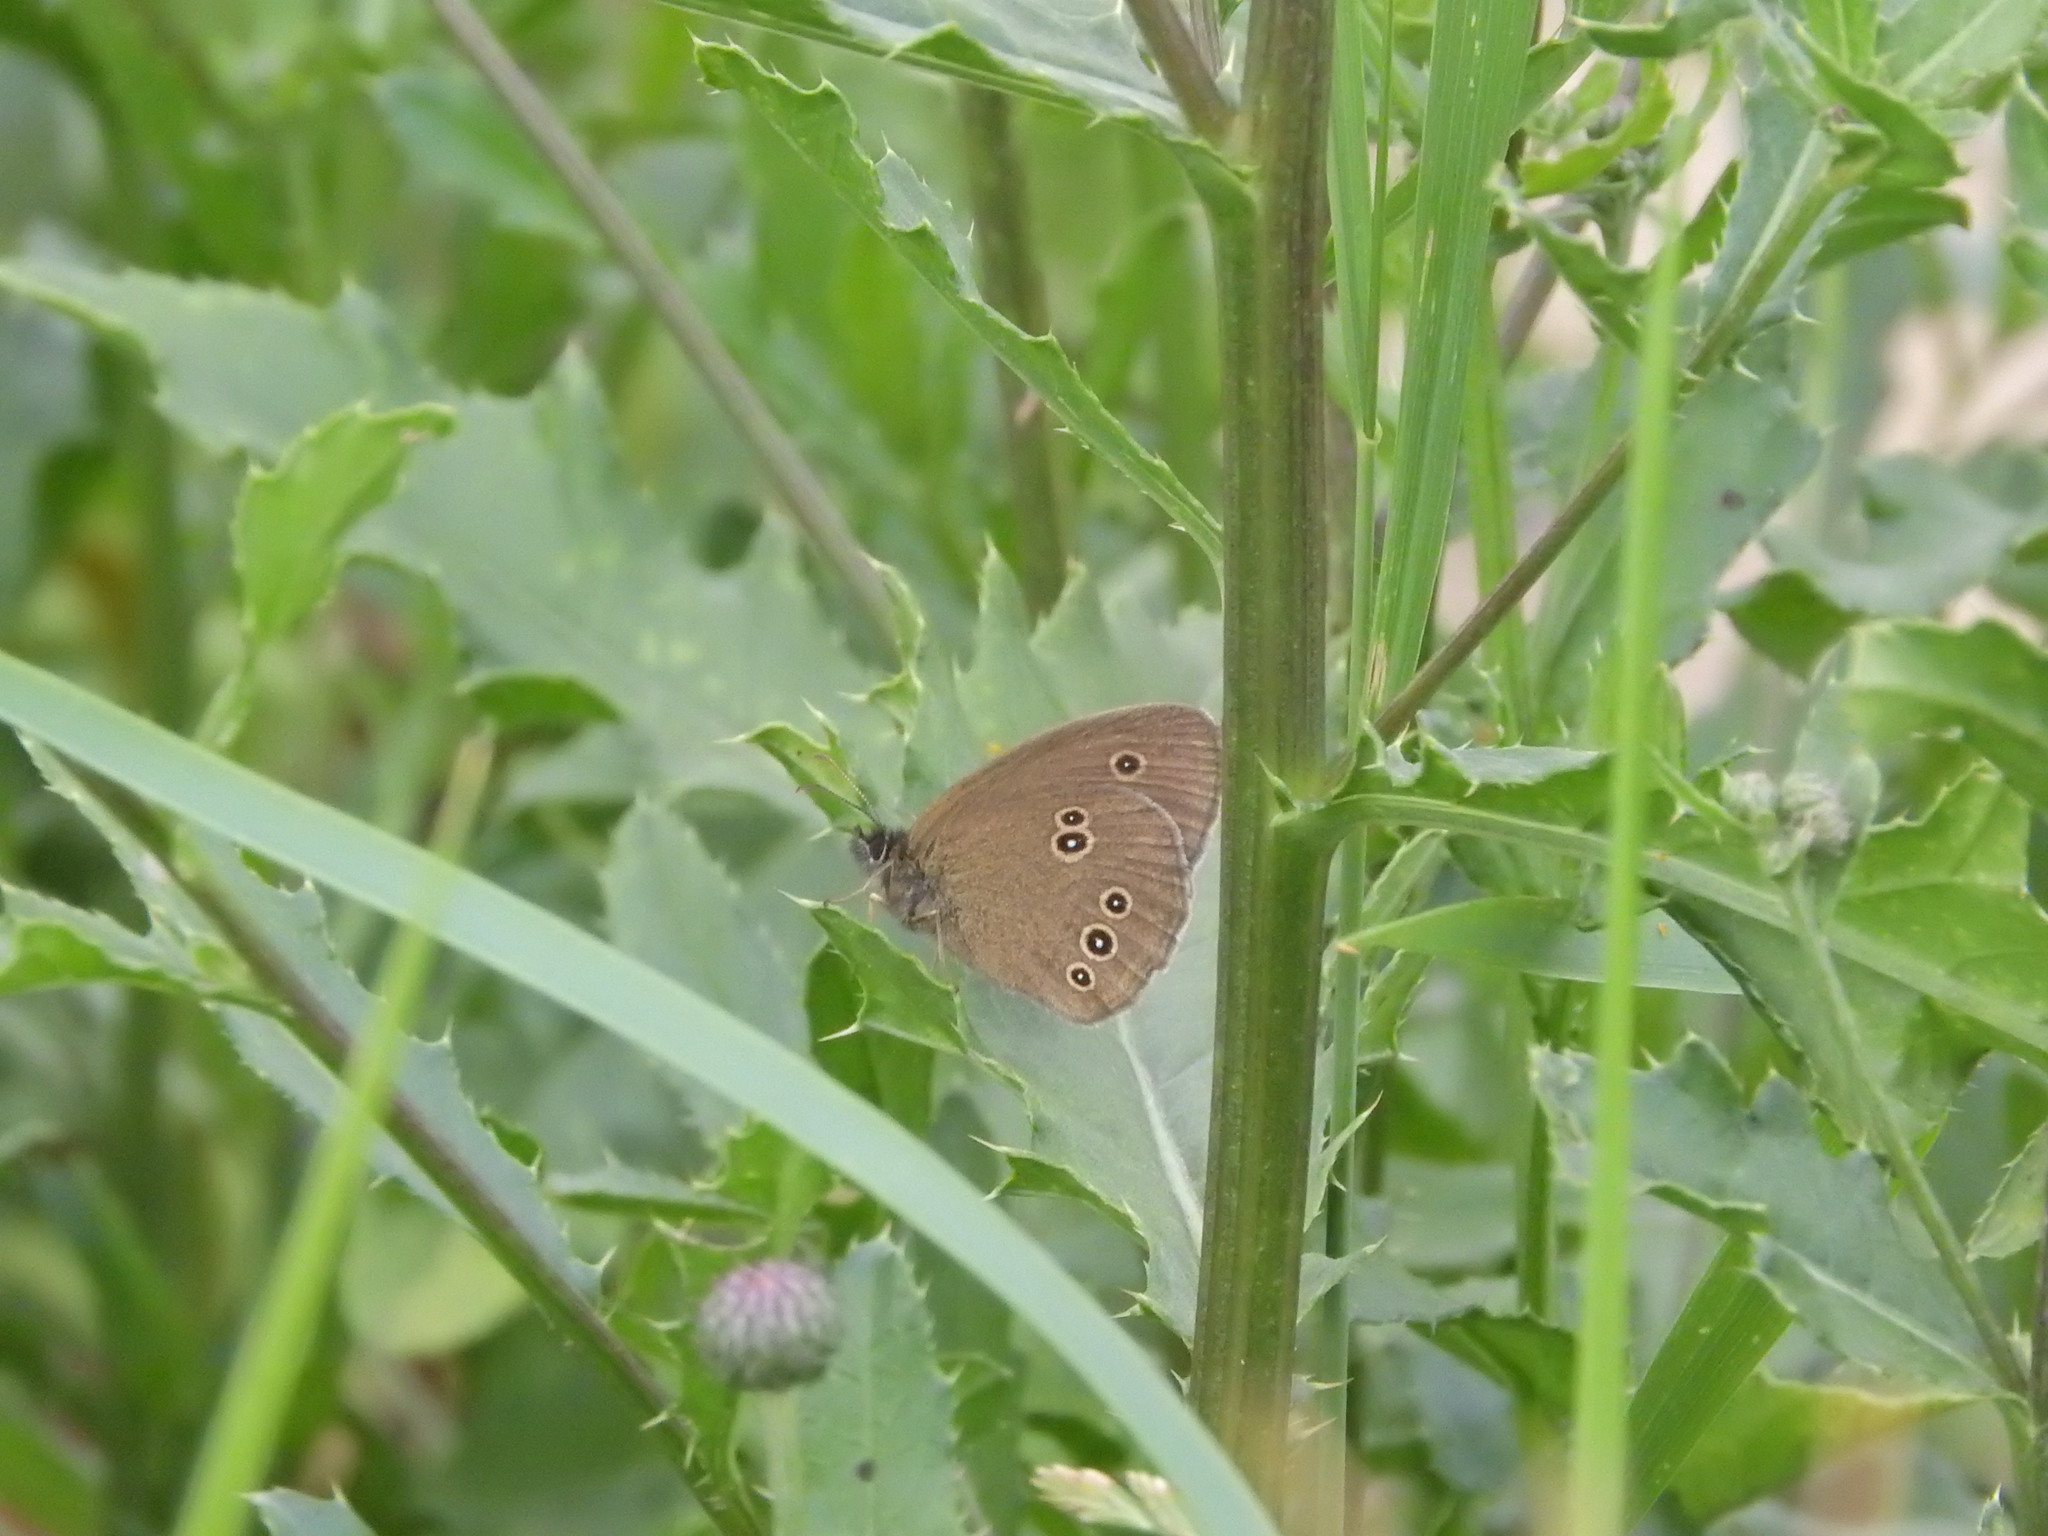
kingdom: Animalia
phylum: Arthropoda
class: Insecta
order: Lepidoptera
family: Nymphalidae
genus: Aphantopus
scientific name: Aphantopus hyperantus
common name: Ringlet
